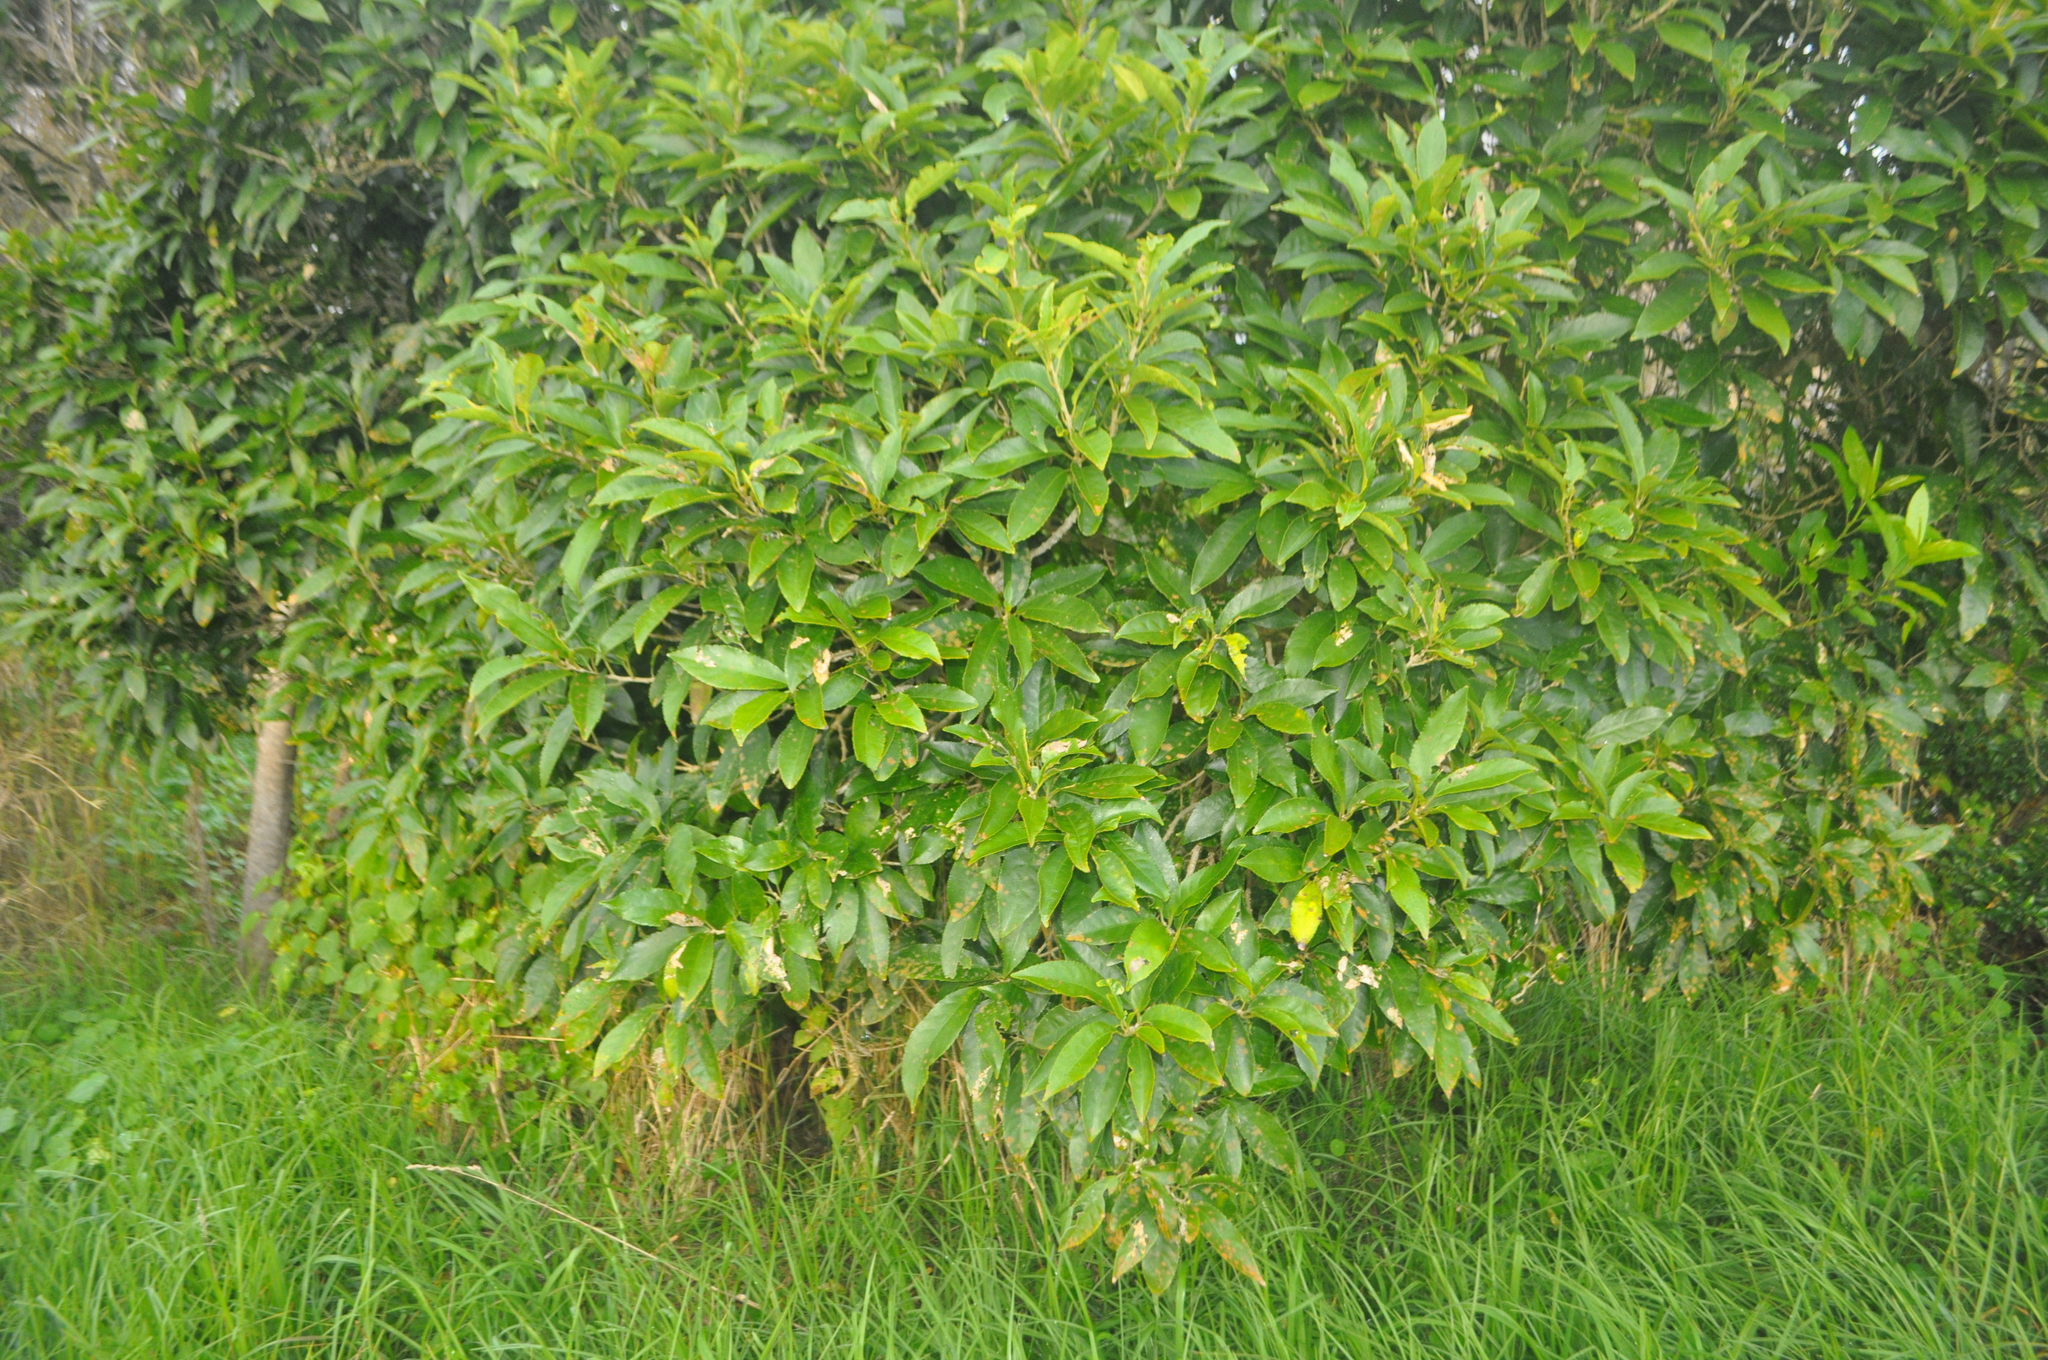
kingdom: Plantae
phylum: Tracheophyta
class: Magnoliopsida
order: Malpighiales
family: Violaceae
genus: Melicytus
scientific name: Melicytus ramiflorus
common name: Mahoe
